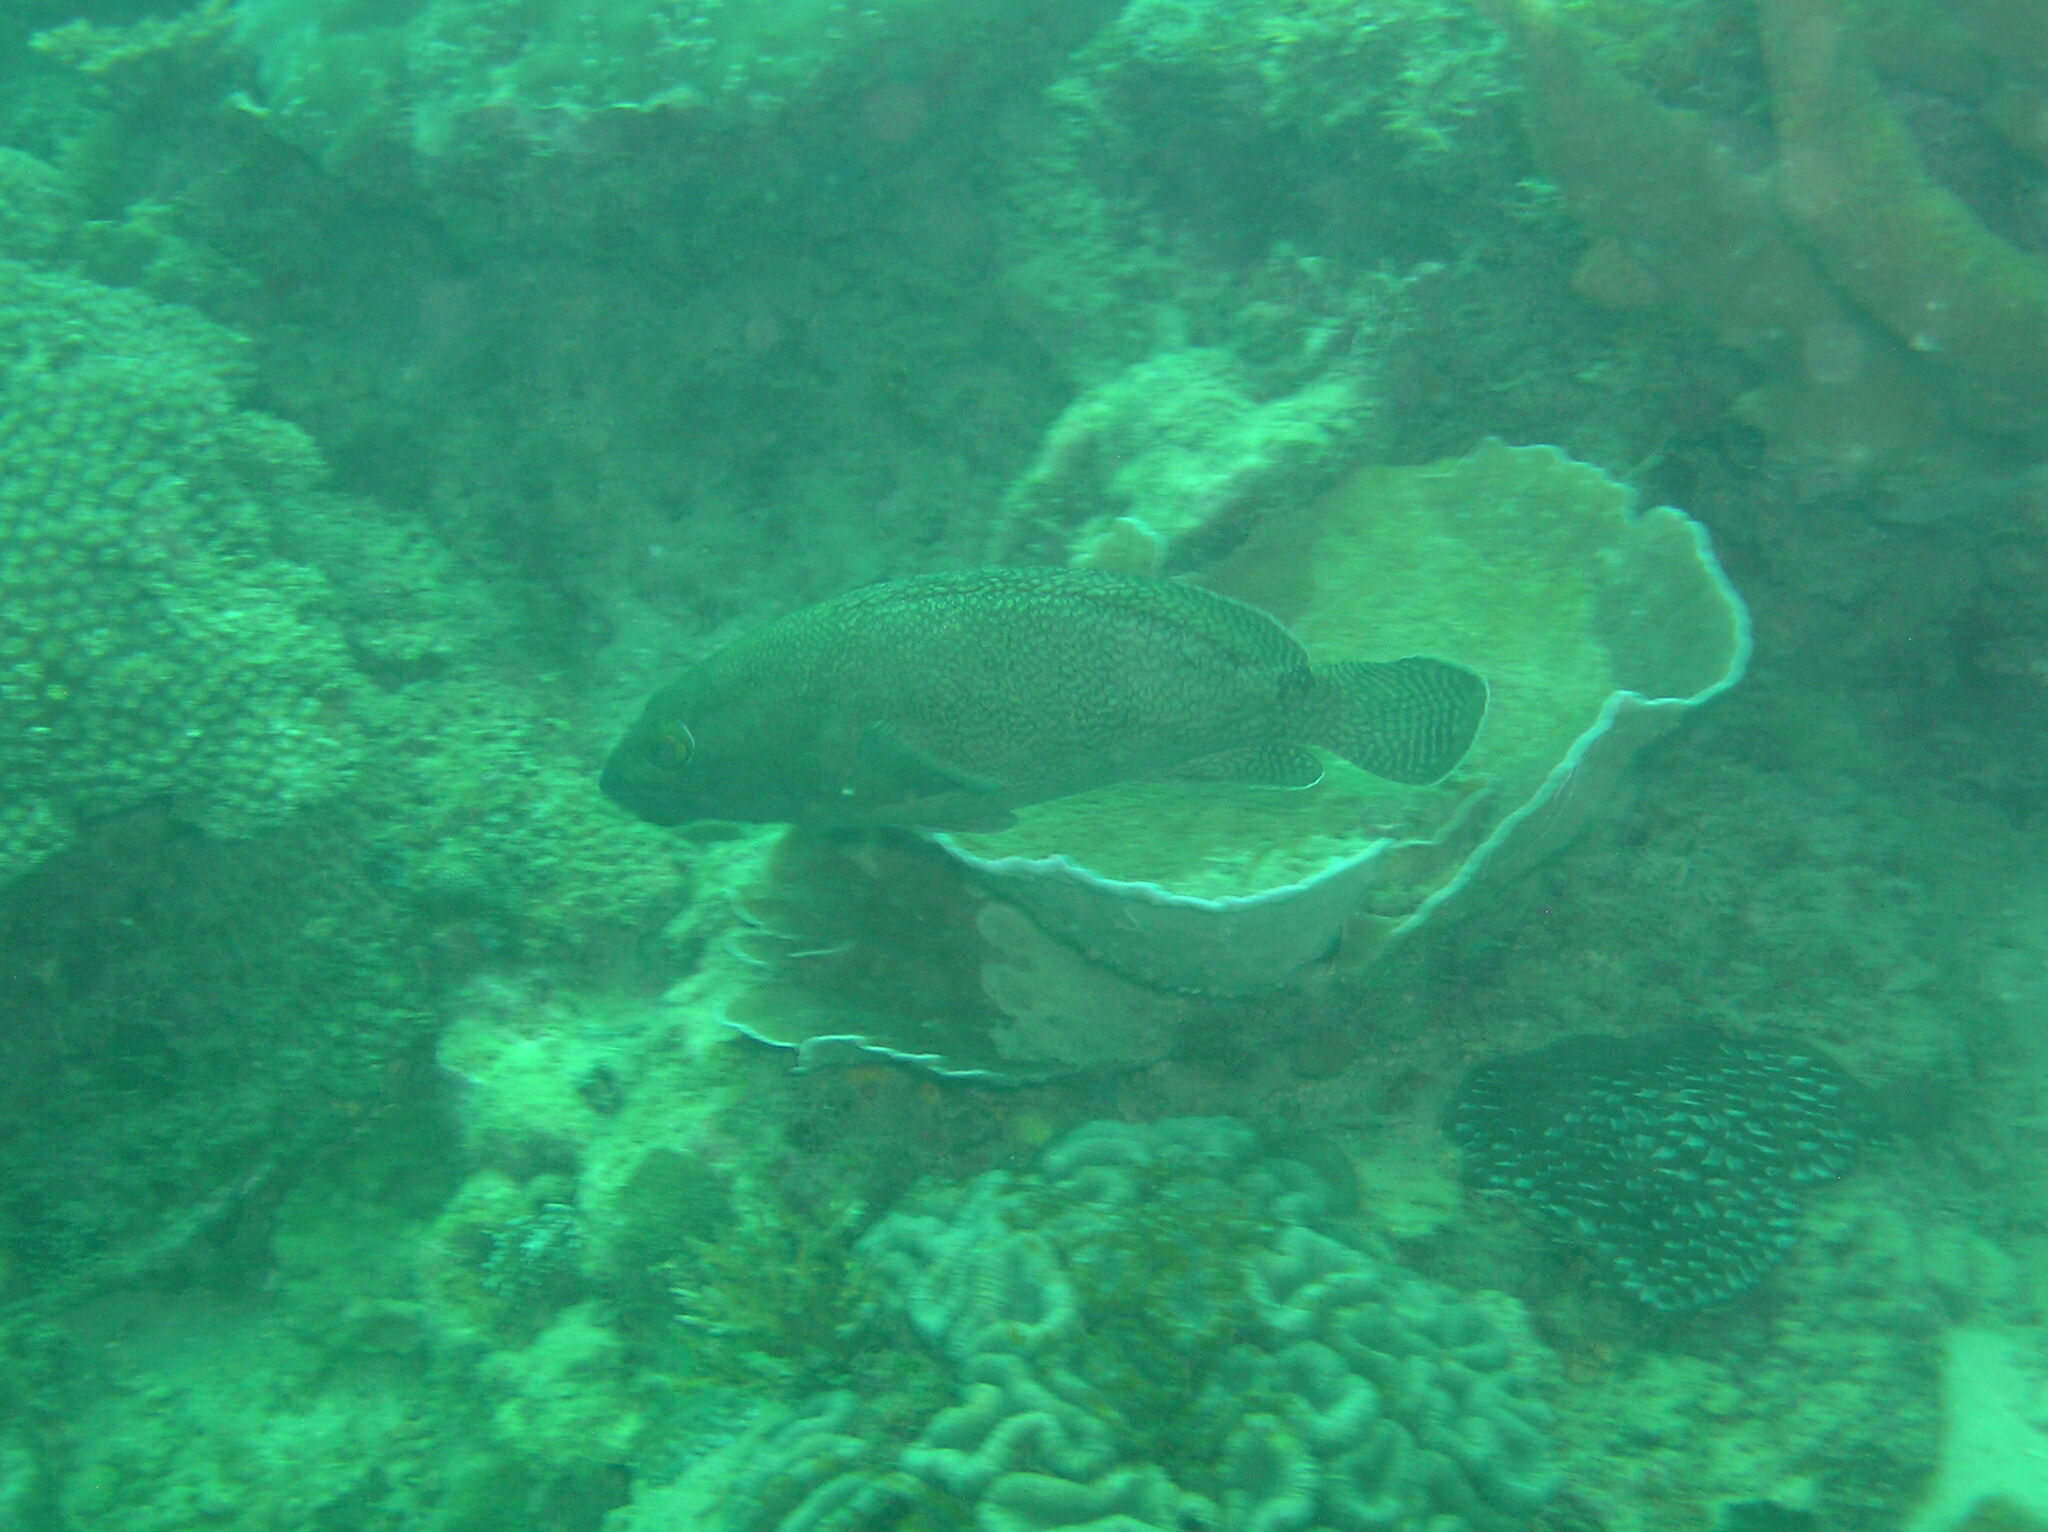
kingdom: Animalia
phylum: Chordata
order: Perciformes
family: Serranidae
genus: Epinephelus
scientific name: Epinephelus ongus
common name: White-streaked grouper
